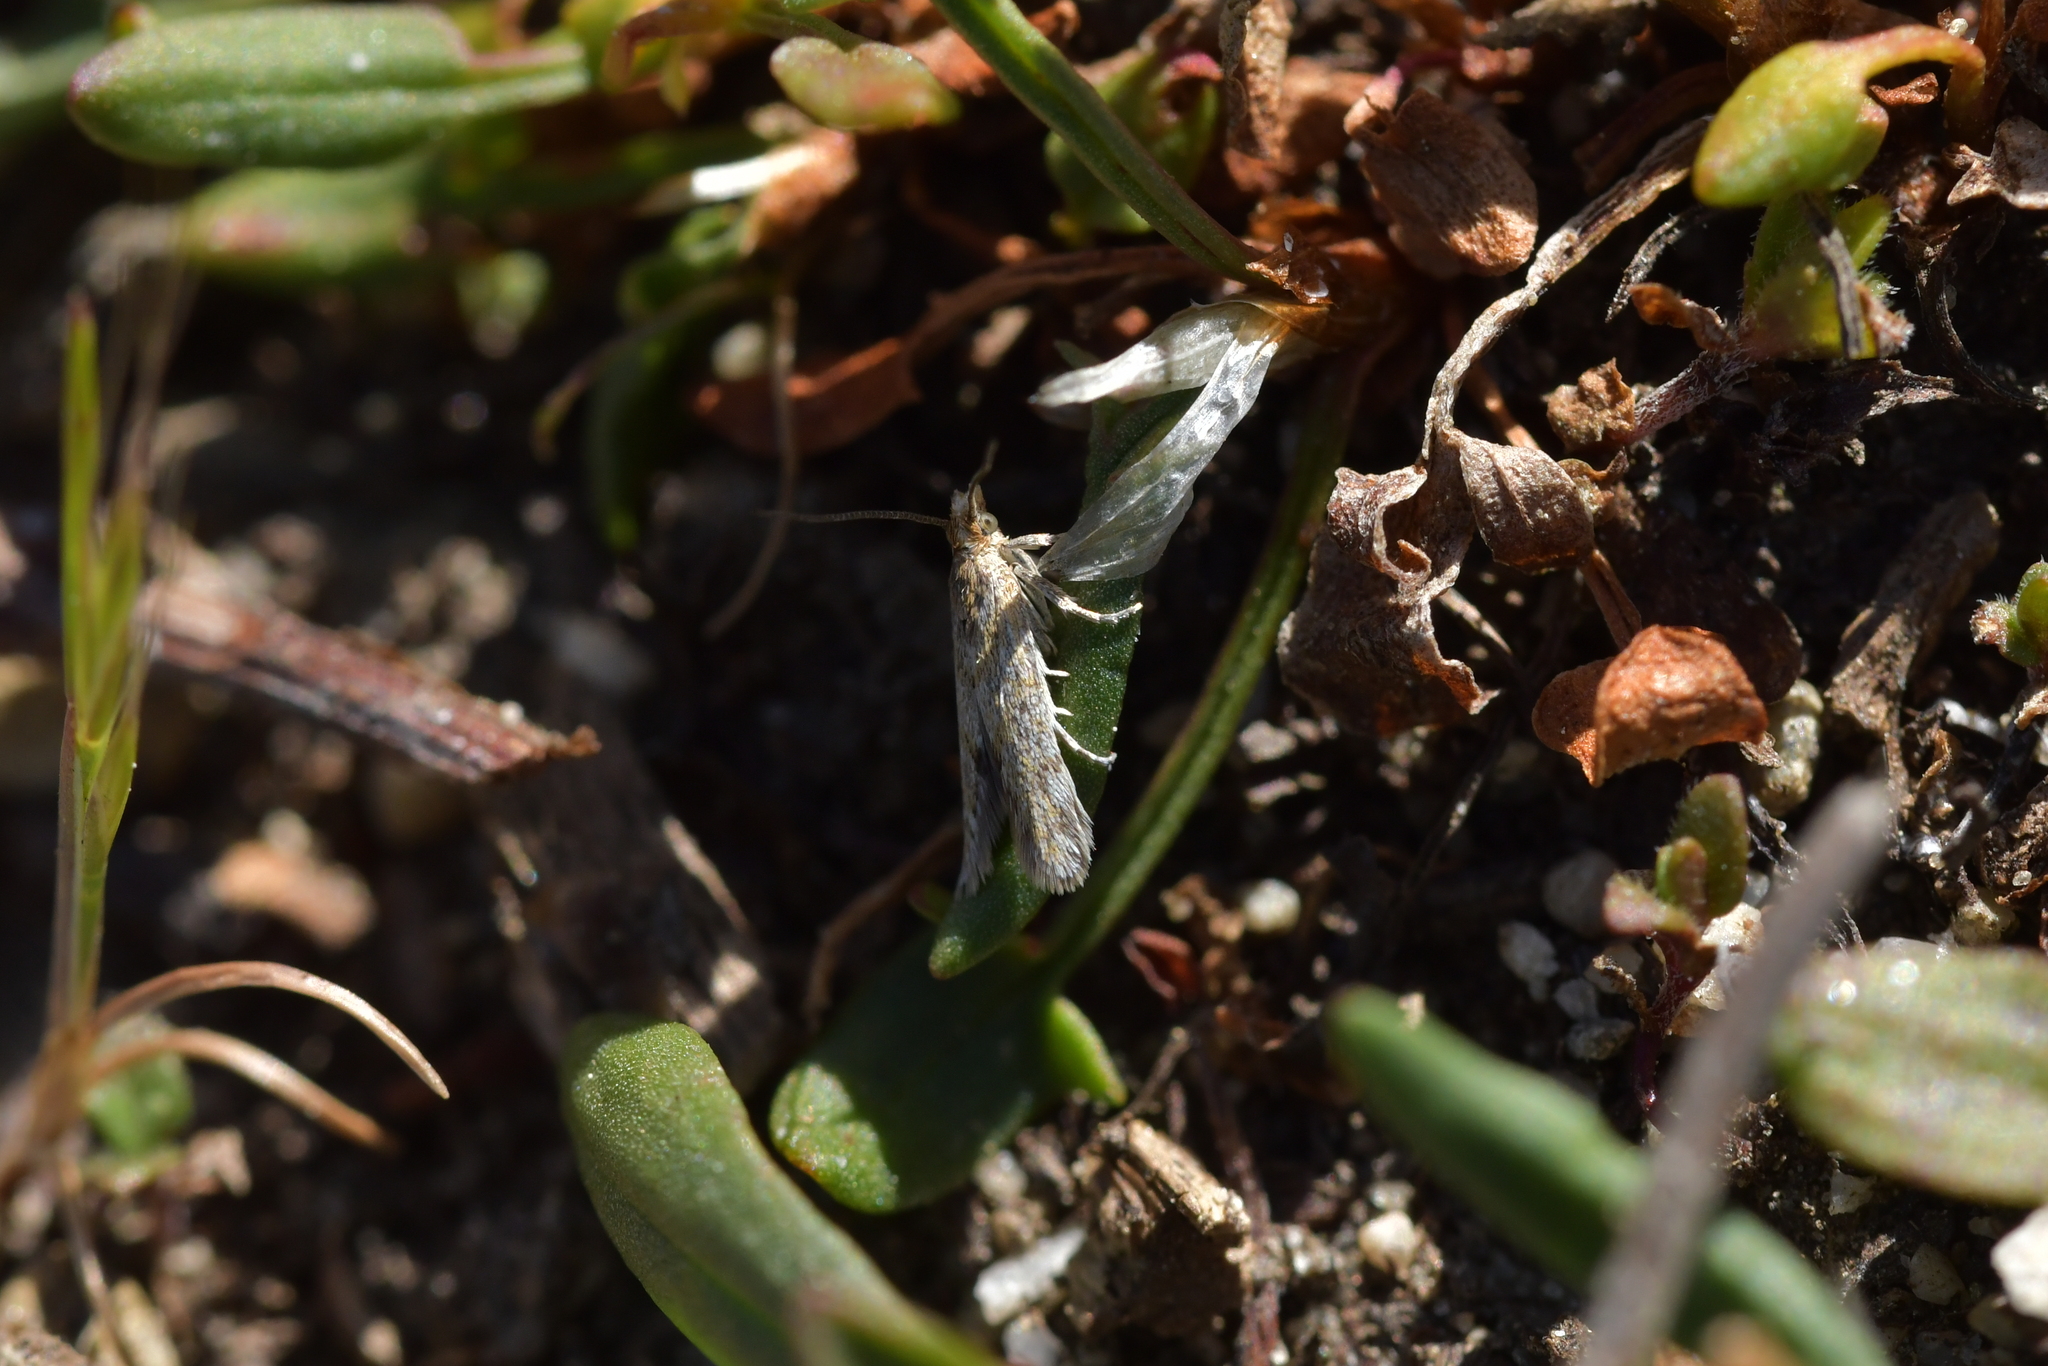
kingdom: Animalia
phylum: Arthropoda
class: Insecta
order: Lepidoptera
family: Tortricidae
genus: Eurythecta
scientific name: Eurythecta zelaea
